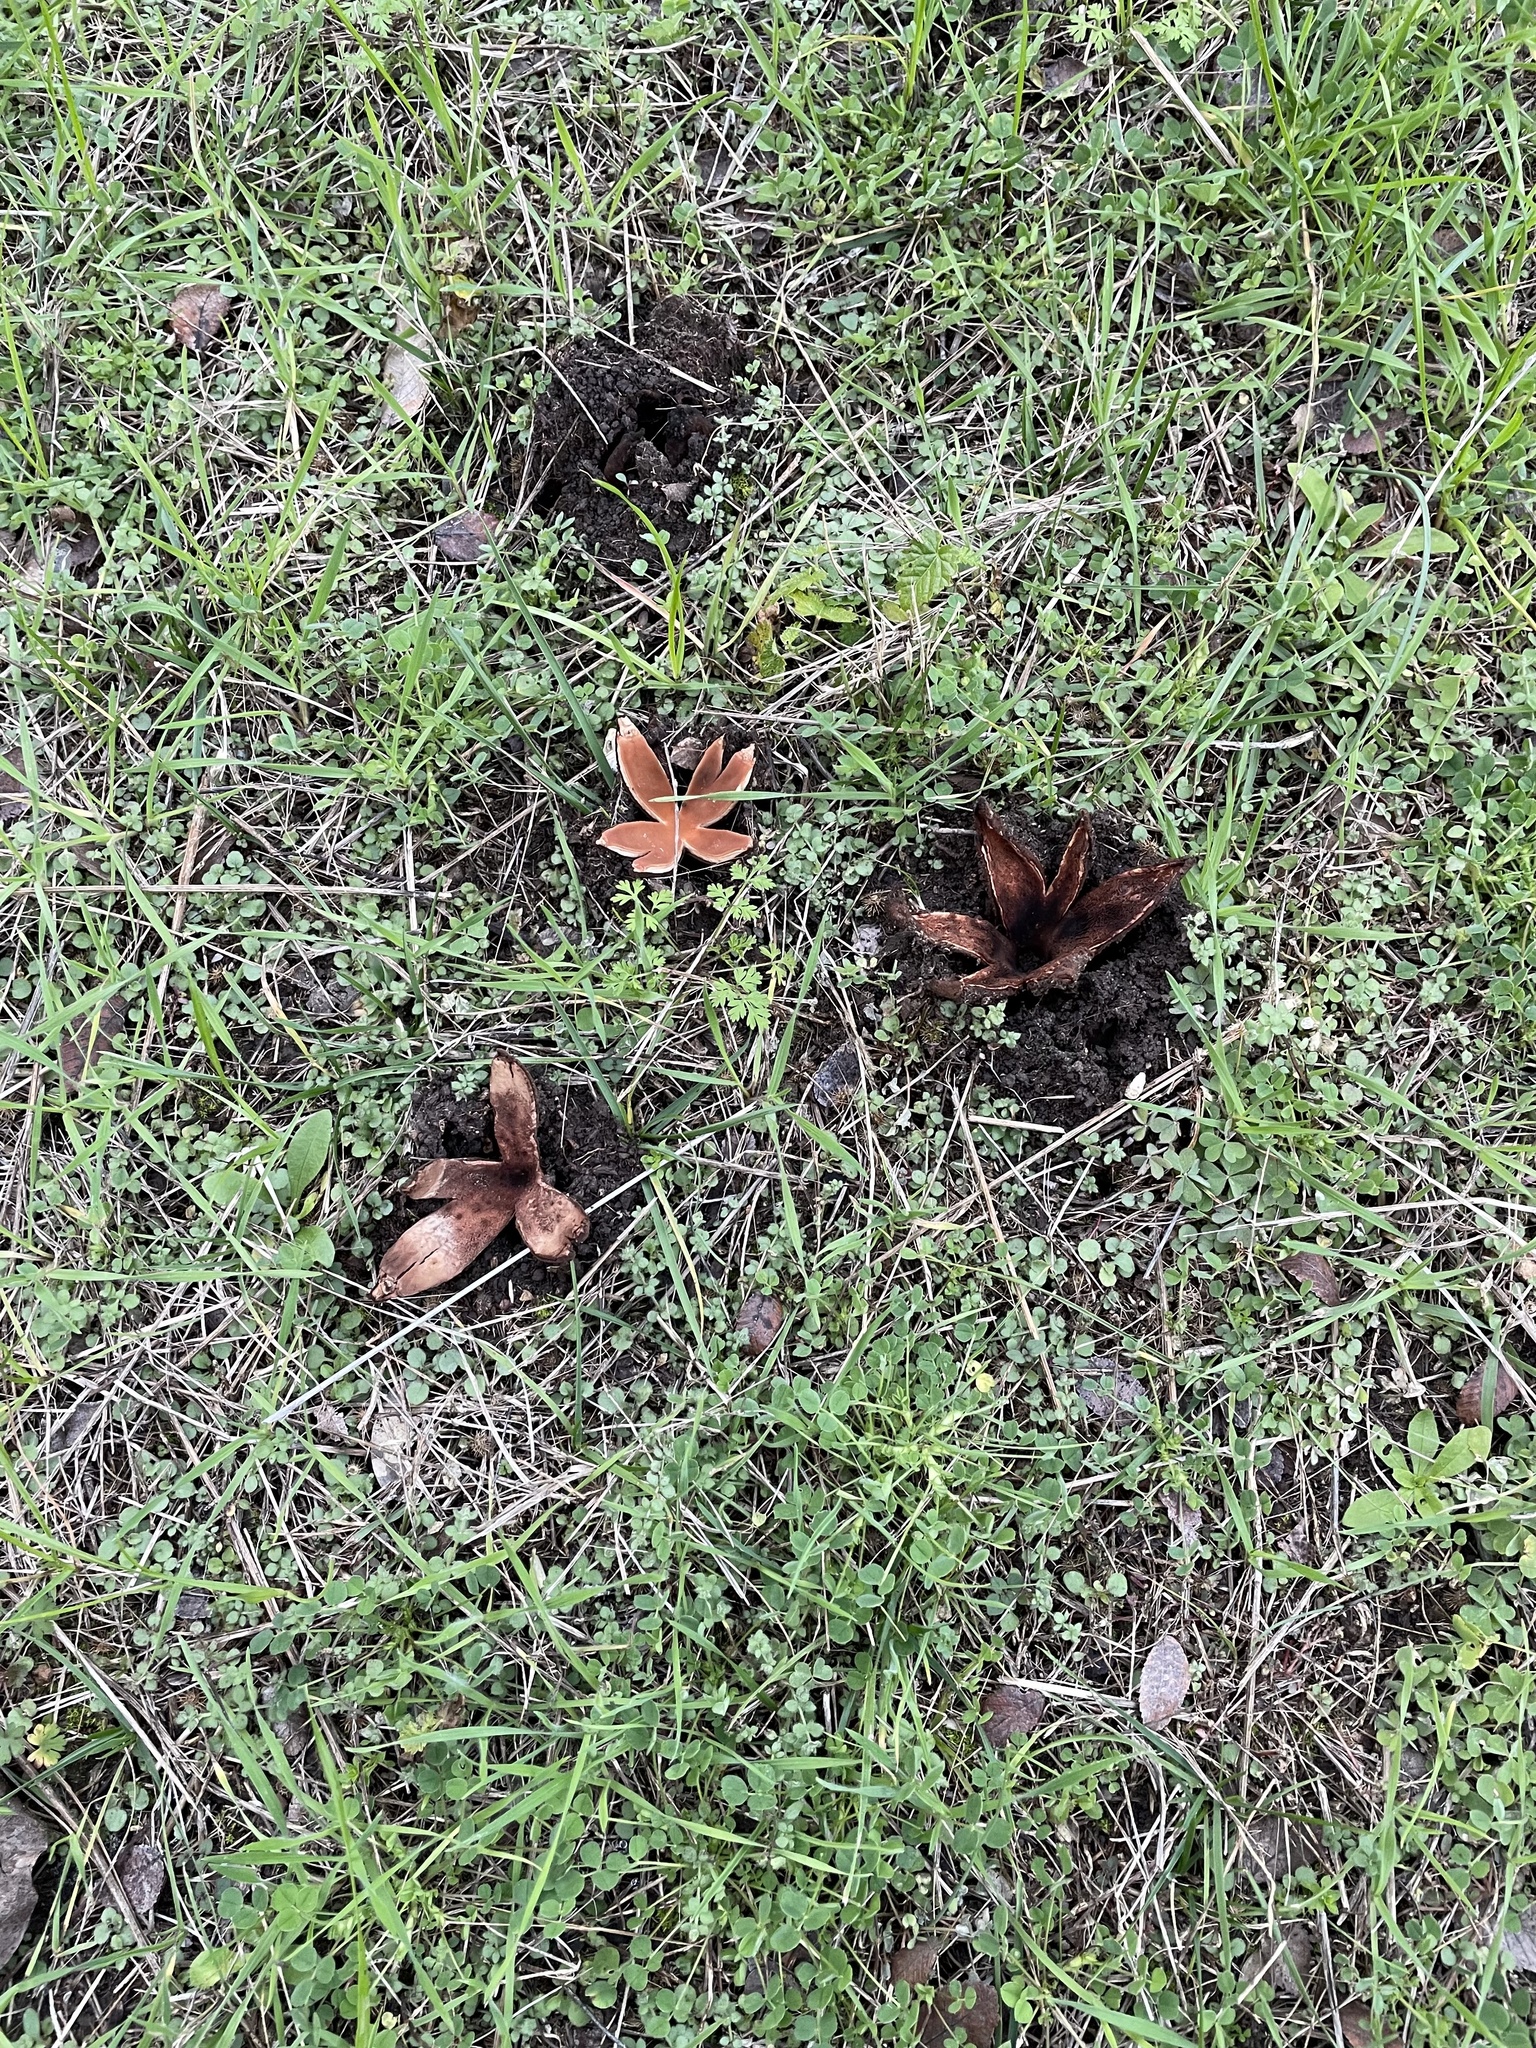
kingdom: Fungi
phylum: Ascomycota
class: Pezizomycetes
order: Pezizales
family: Chorioactidaceae
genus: Chorioactis
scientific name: Chorioactis geaster
